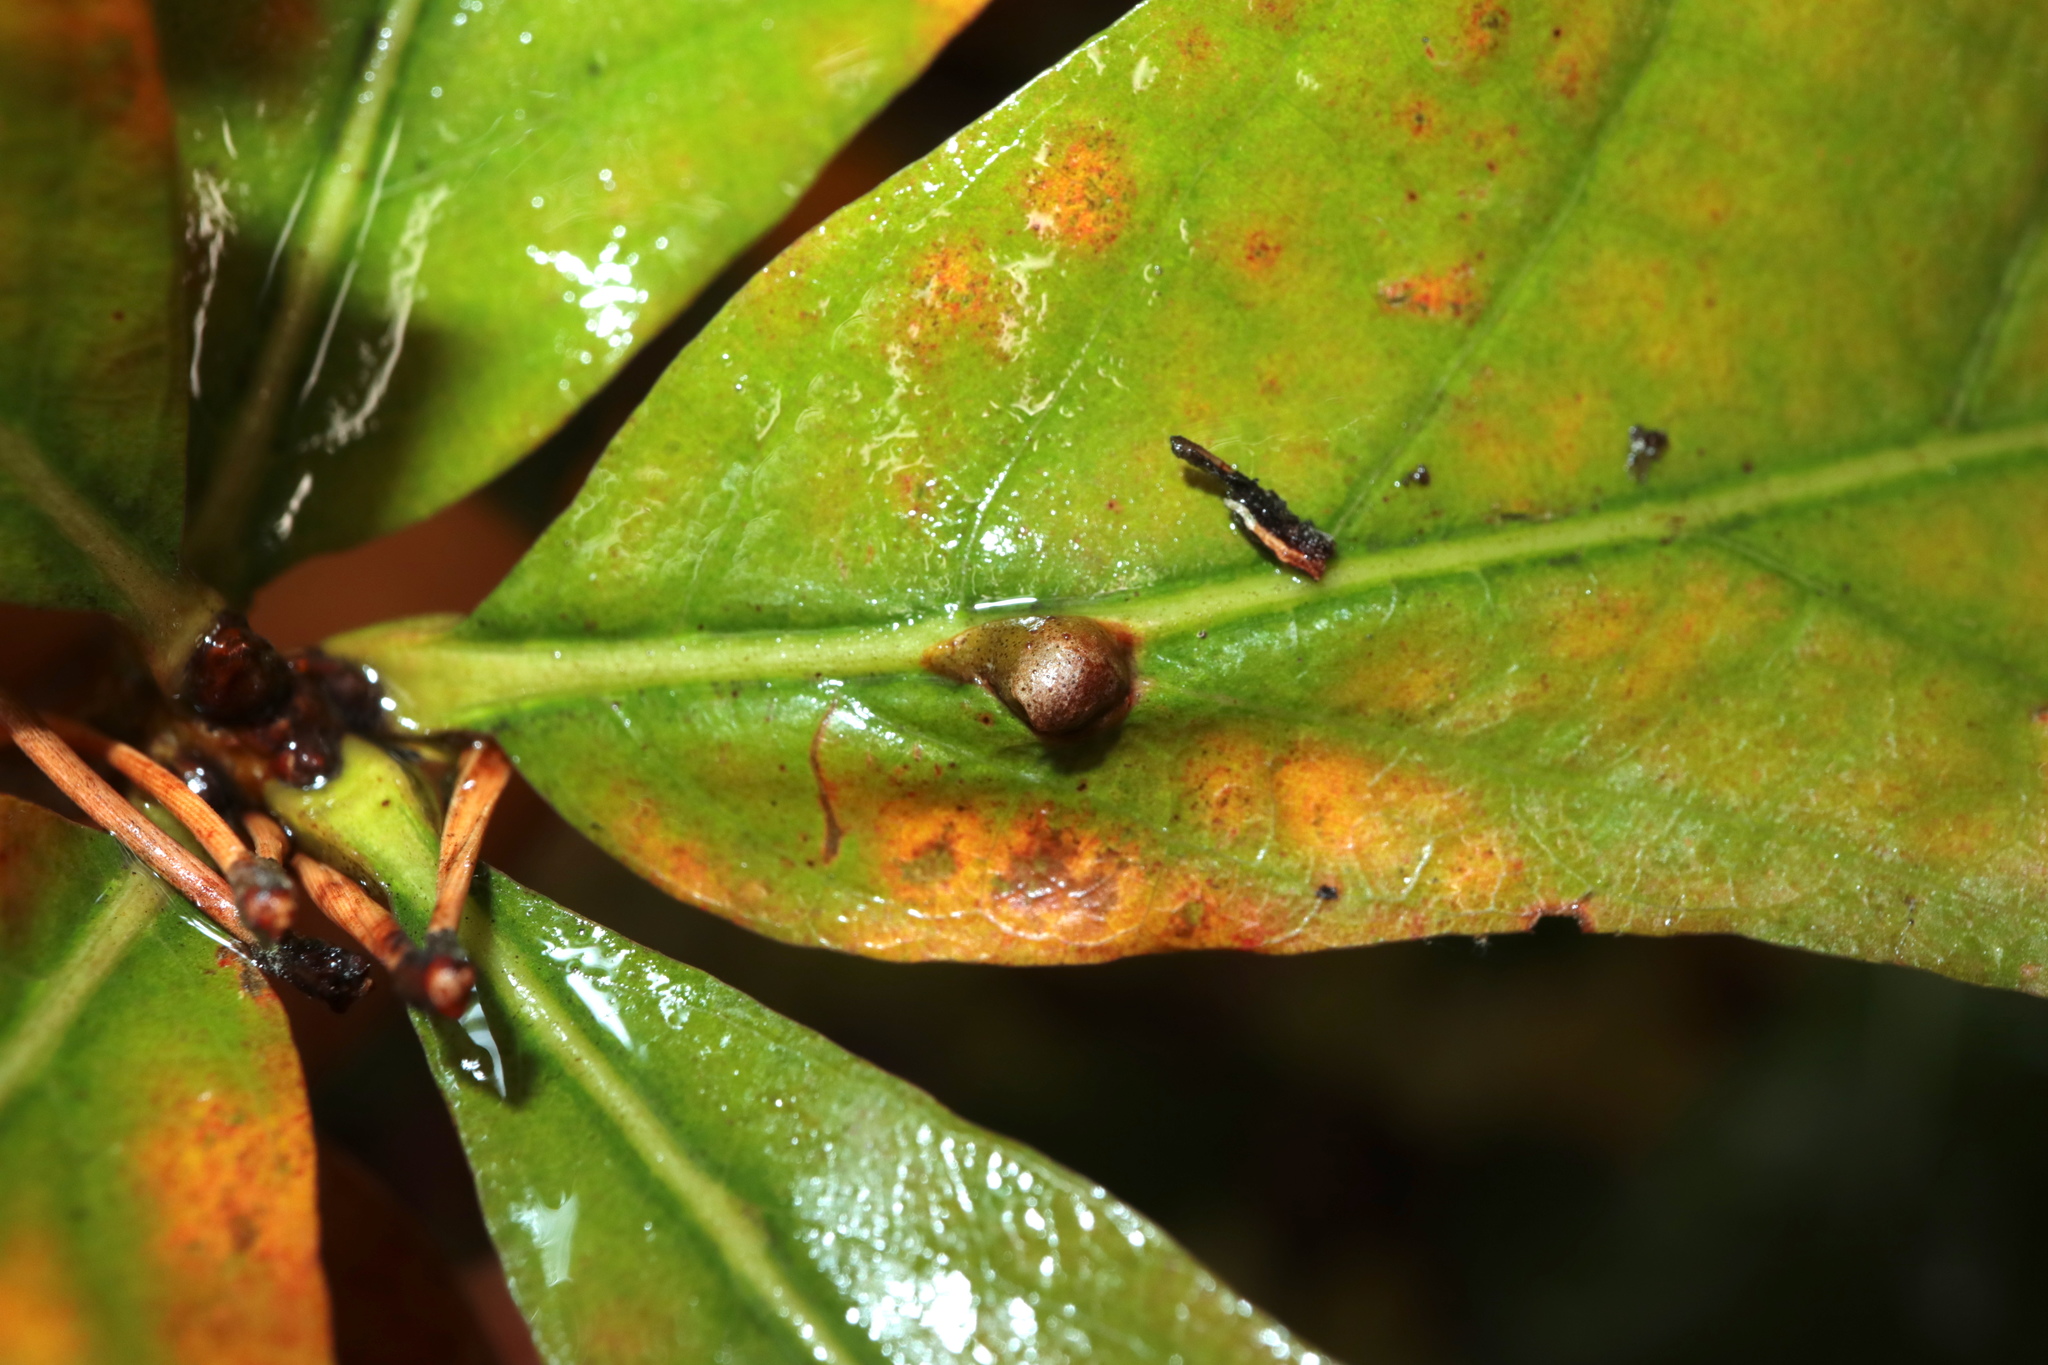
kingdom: Animalia
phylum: Arthropoda
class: Insecta
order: Hymenoptera
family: Cynipidae
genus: Andricus
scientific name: Andricus
